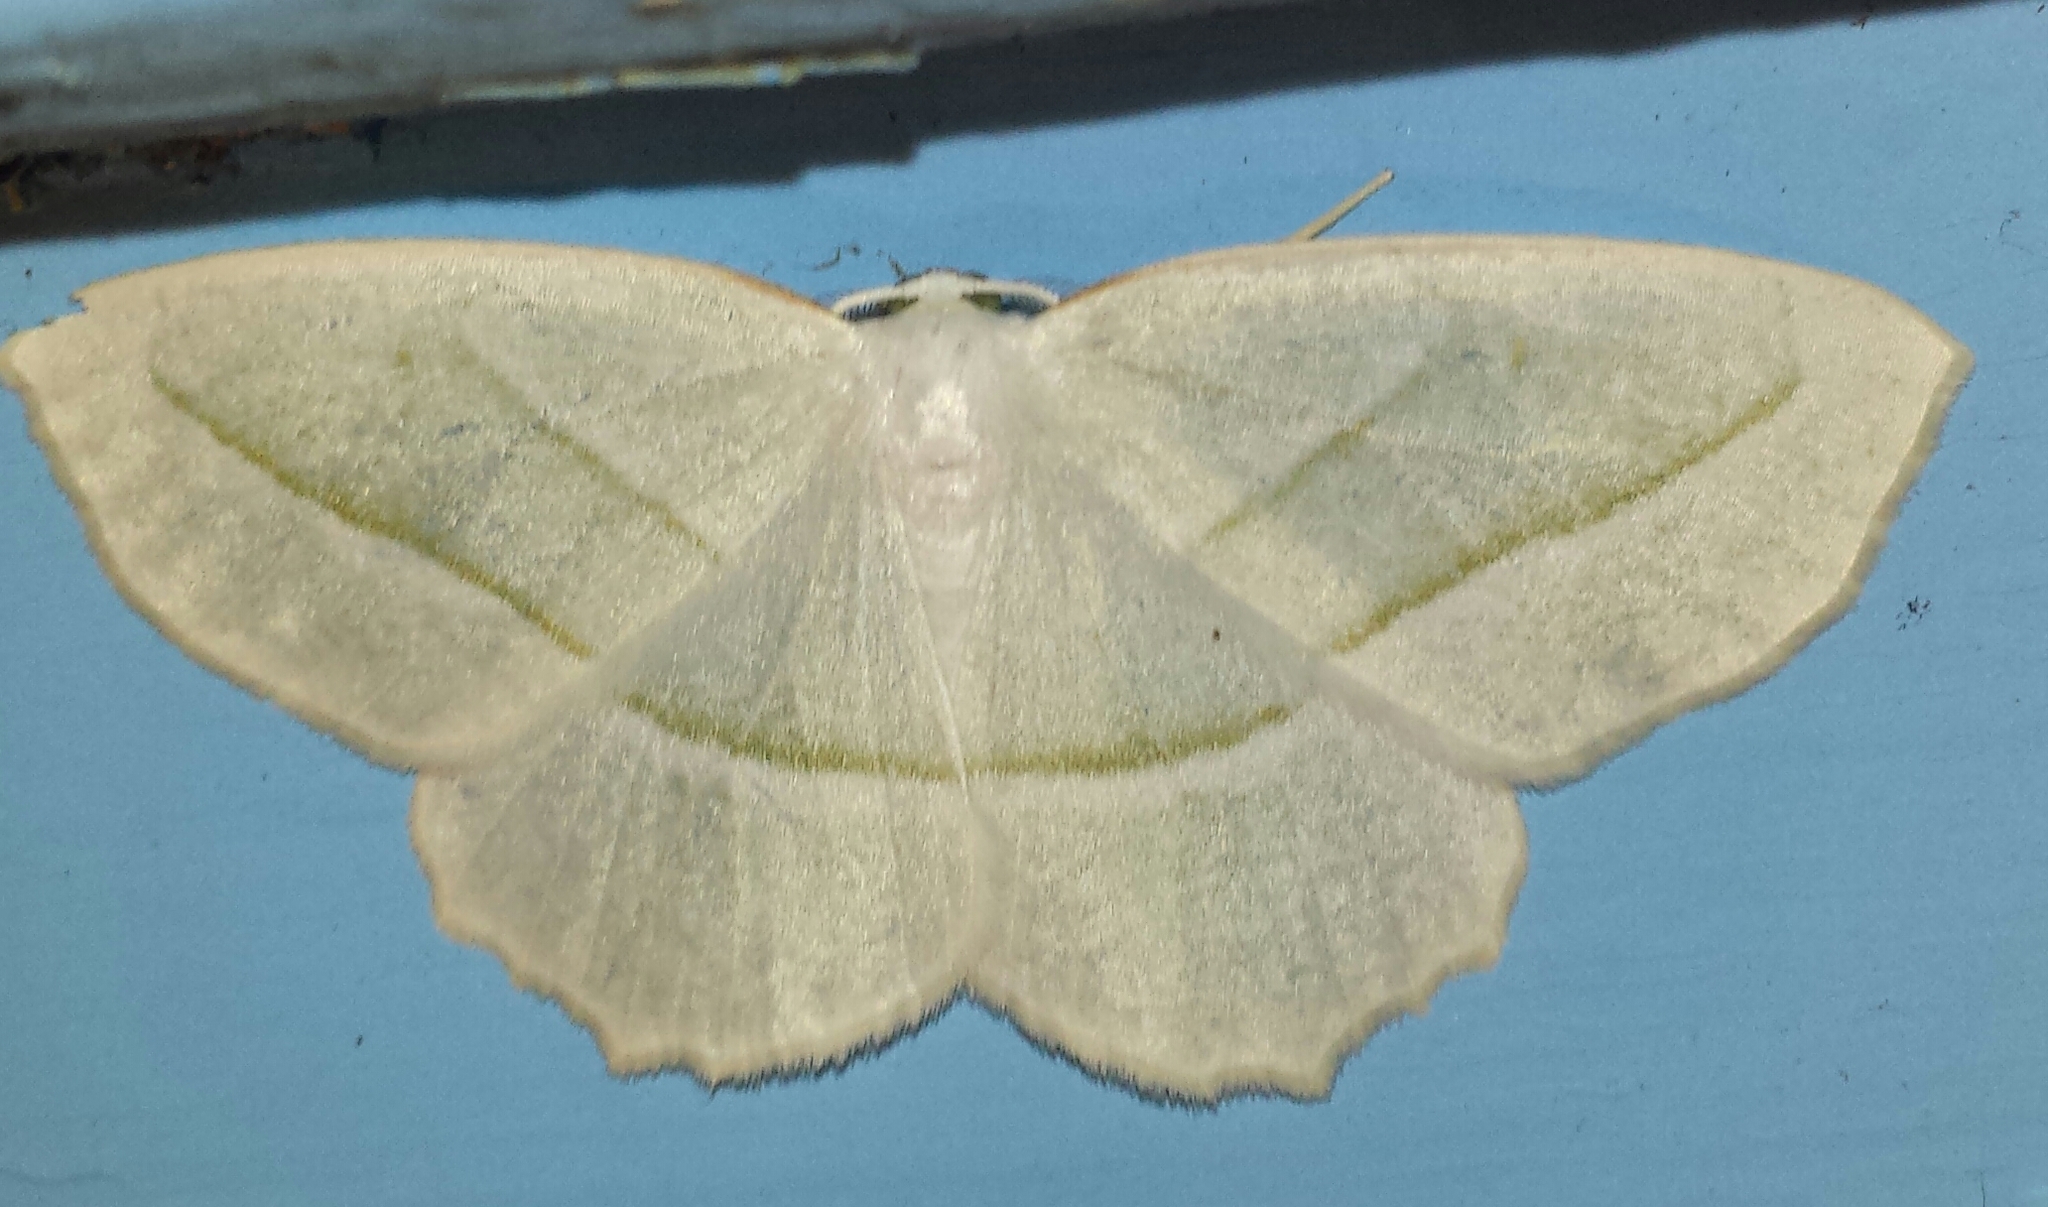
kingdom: Animalia
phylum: Arthropoda
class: Insecta
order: Lepidoptera
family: Geometridae
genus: Campaea
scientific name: Campaea perlata
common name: Fringed looper
